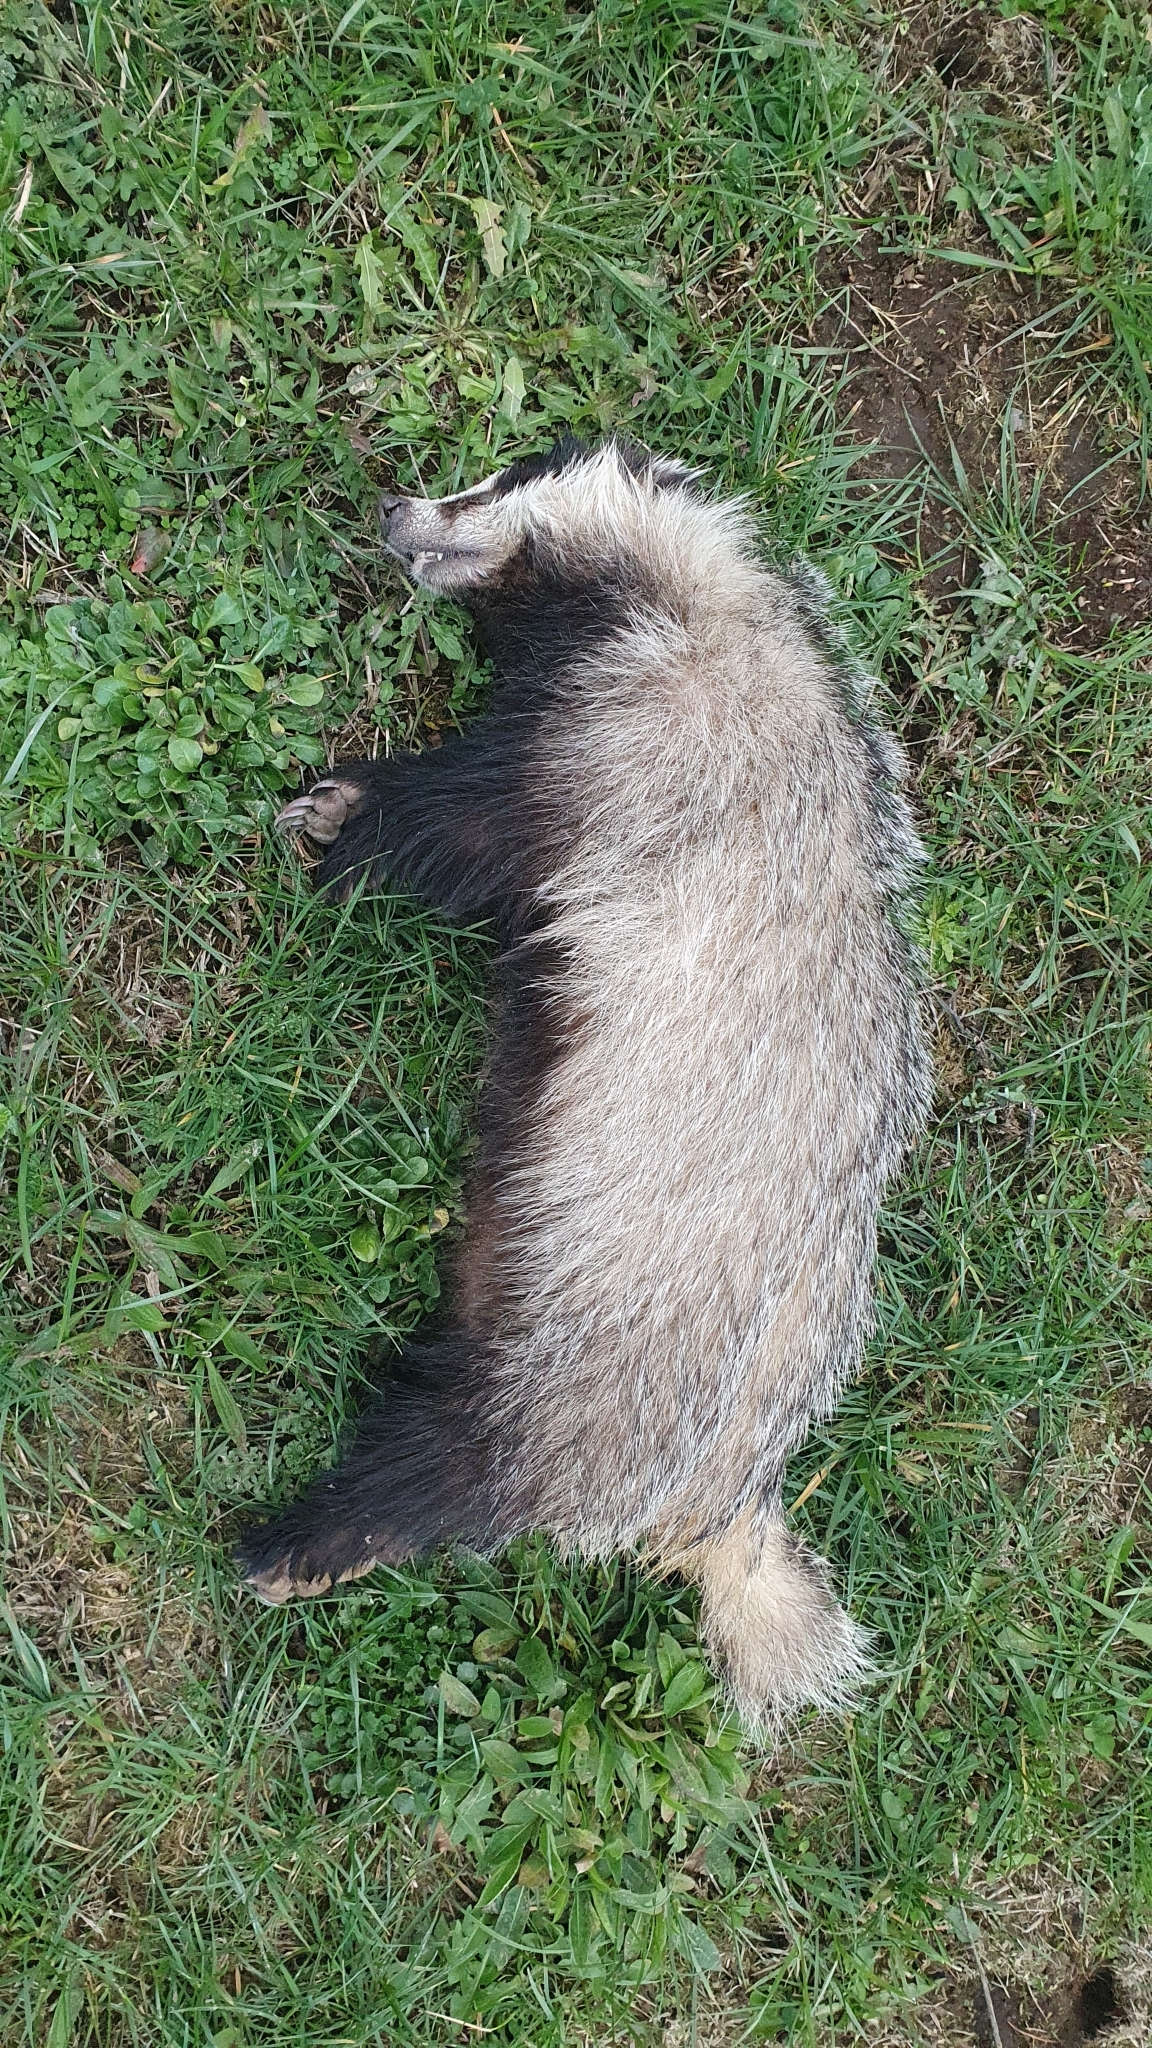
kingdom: Animalia
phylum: Chordata
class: Mammalia
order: Carnivora
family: Mustelidae
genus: Meles
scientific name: Meles meles
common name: Eurasian badger
